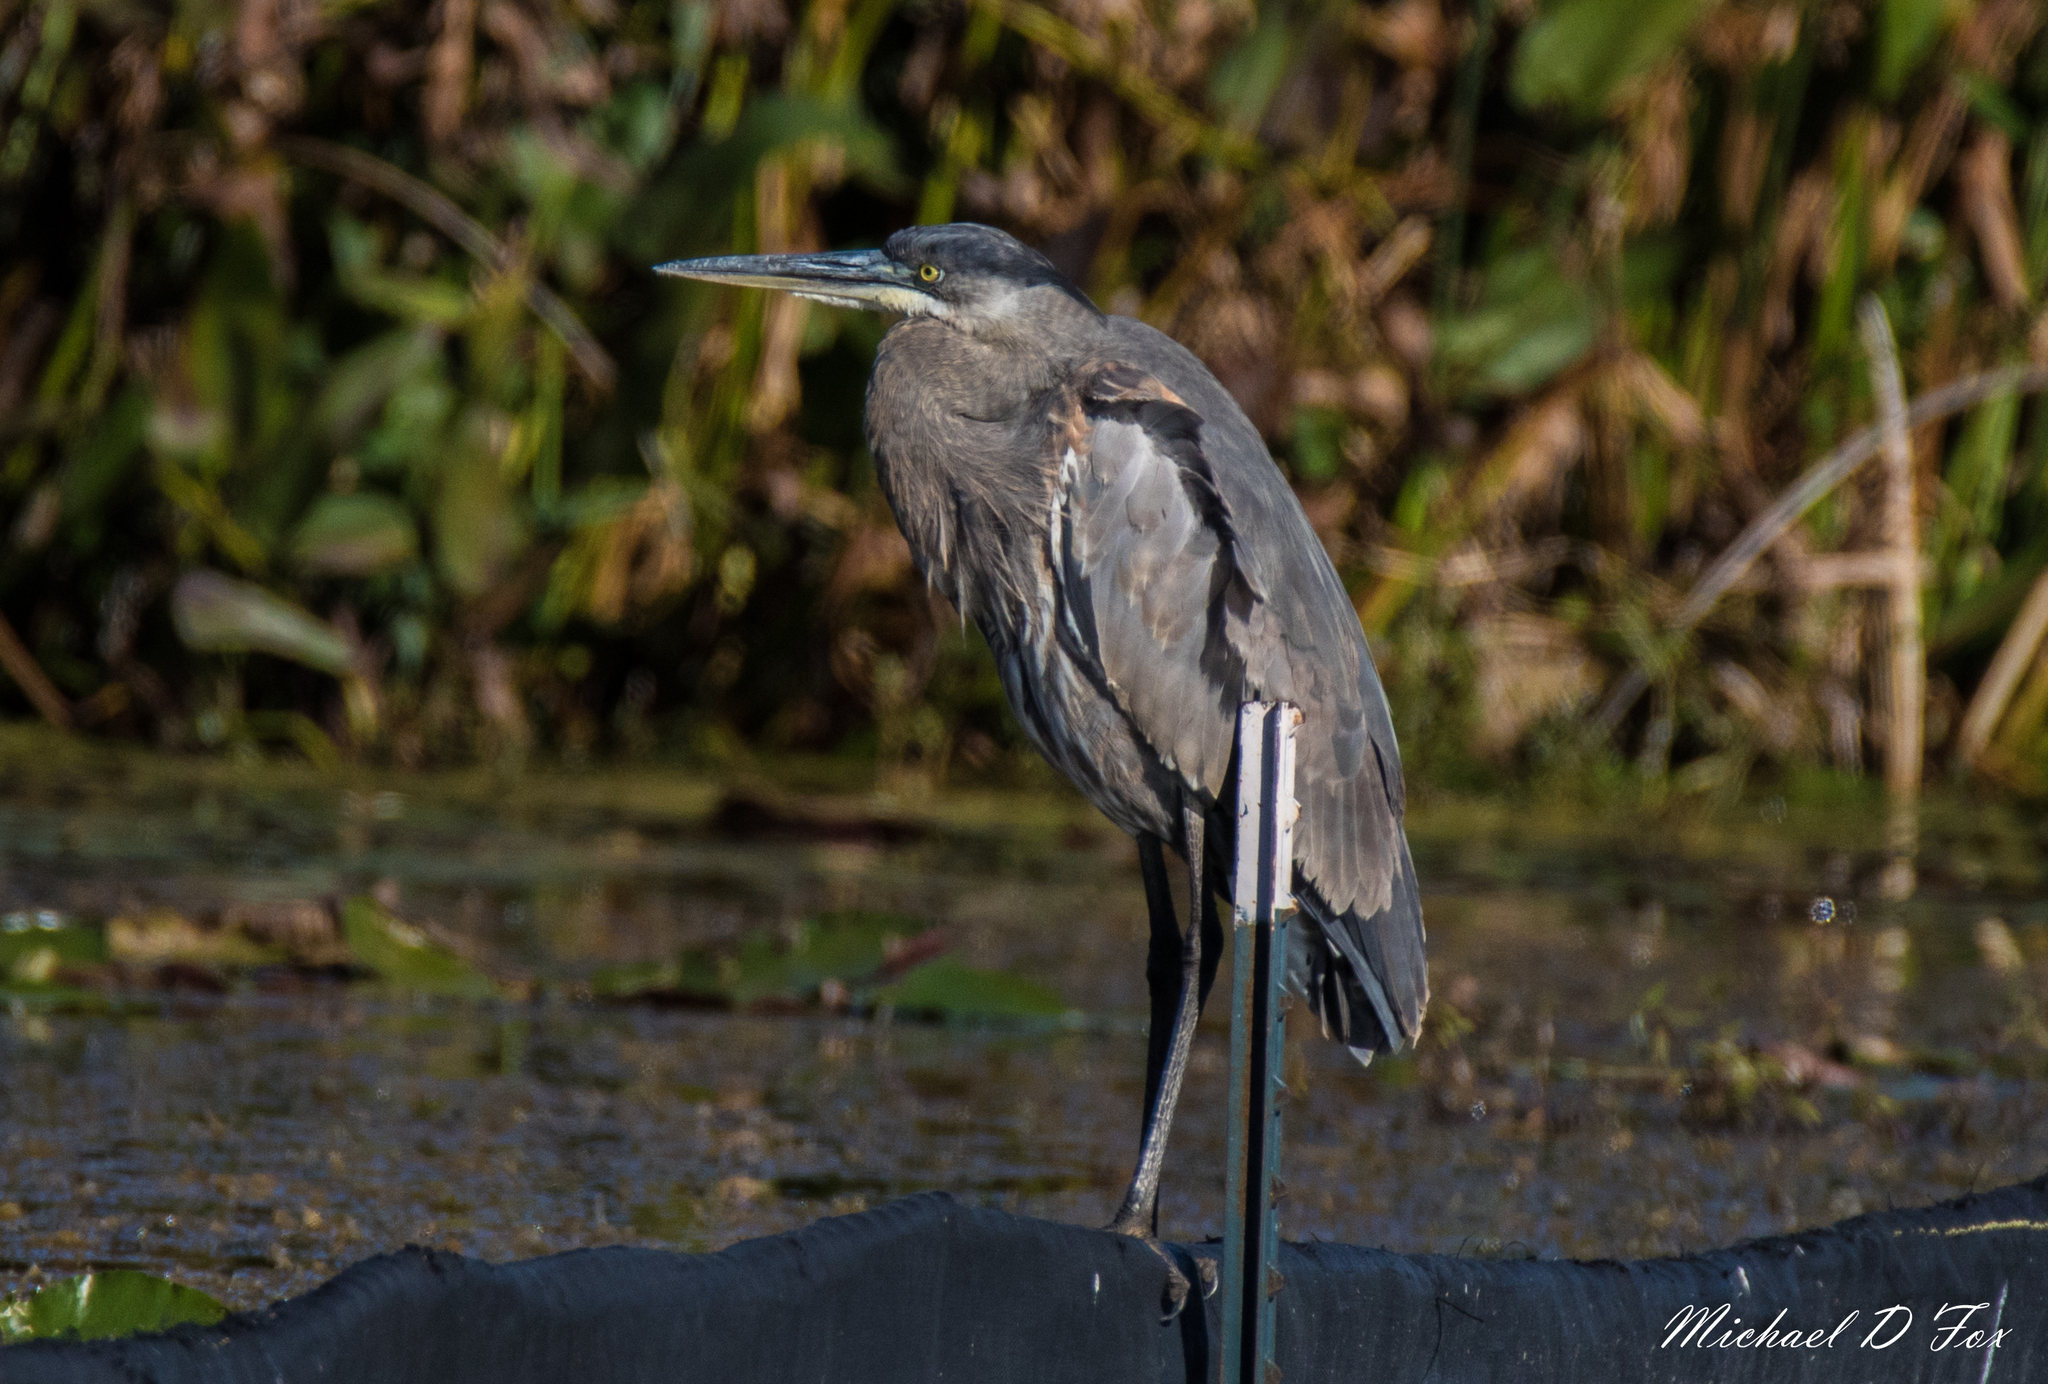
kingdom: Animalia
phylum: Chordata
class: Aves
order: Pelecaniformes
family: Ardeidae
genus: Ardea
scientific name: Ardea herodias
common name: Great blue heron
